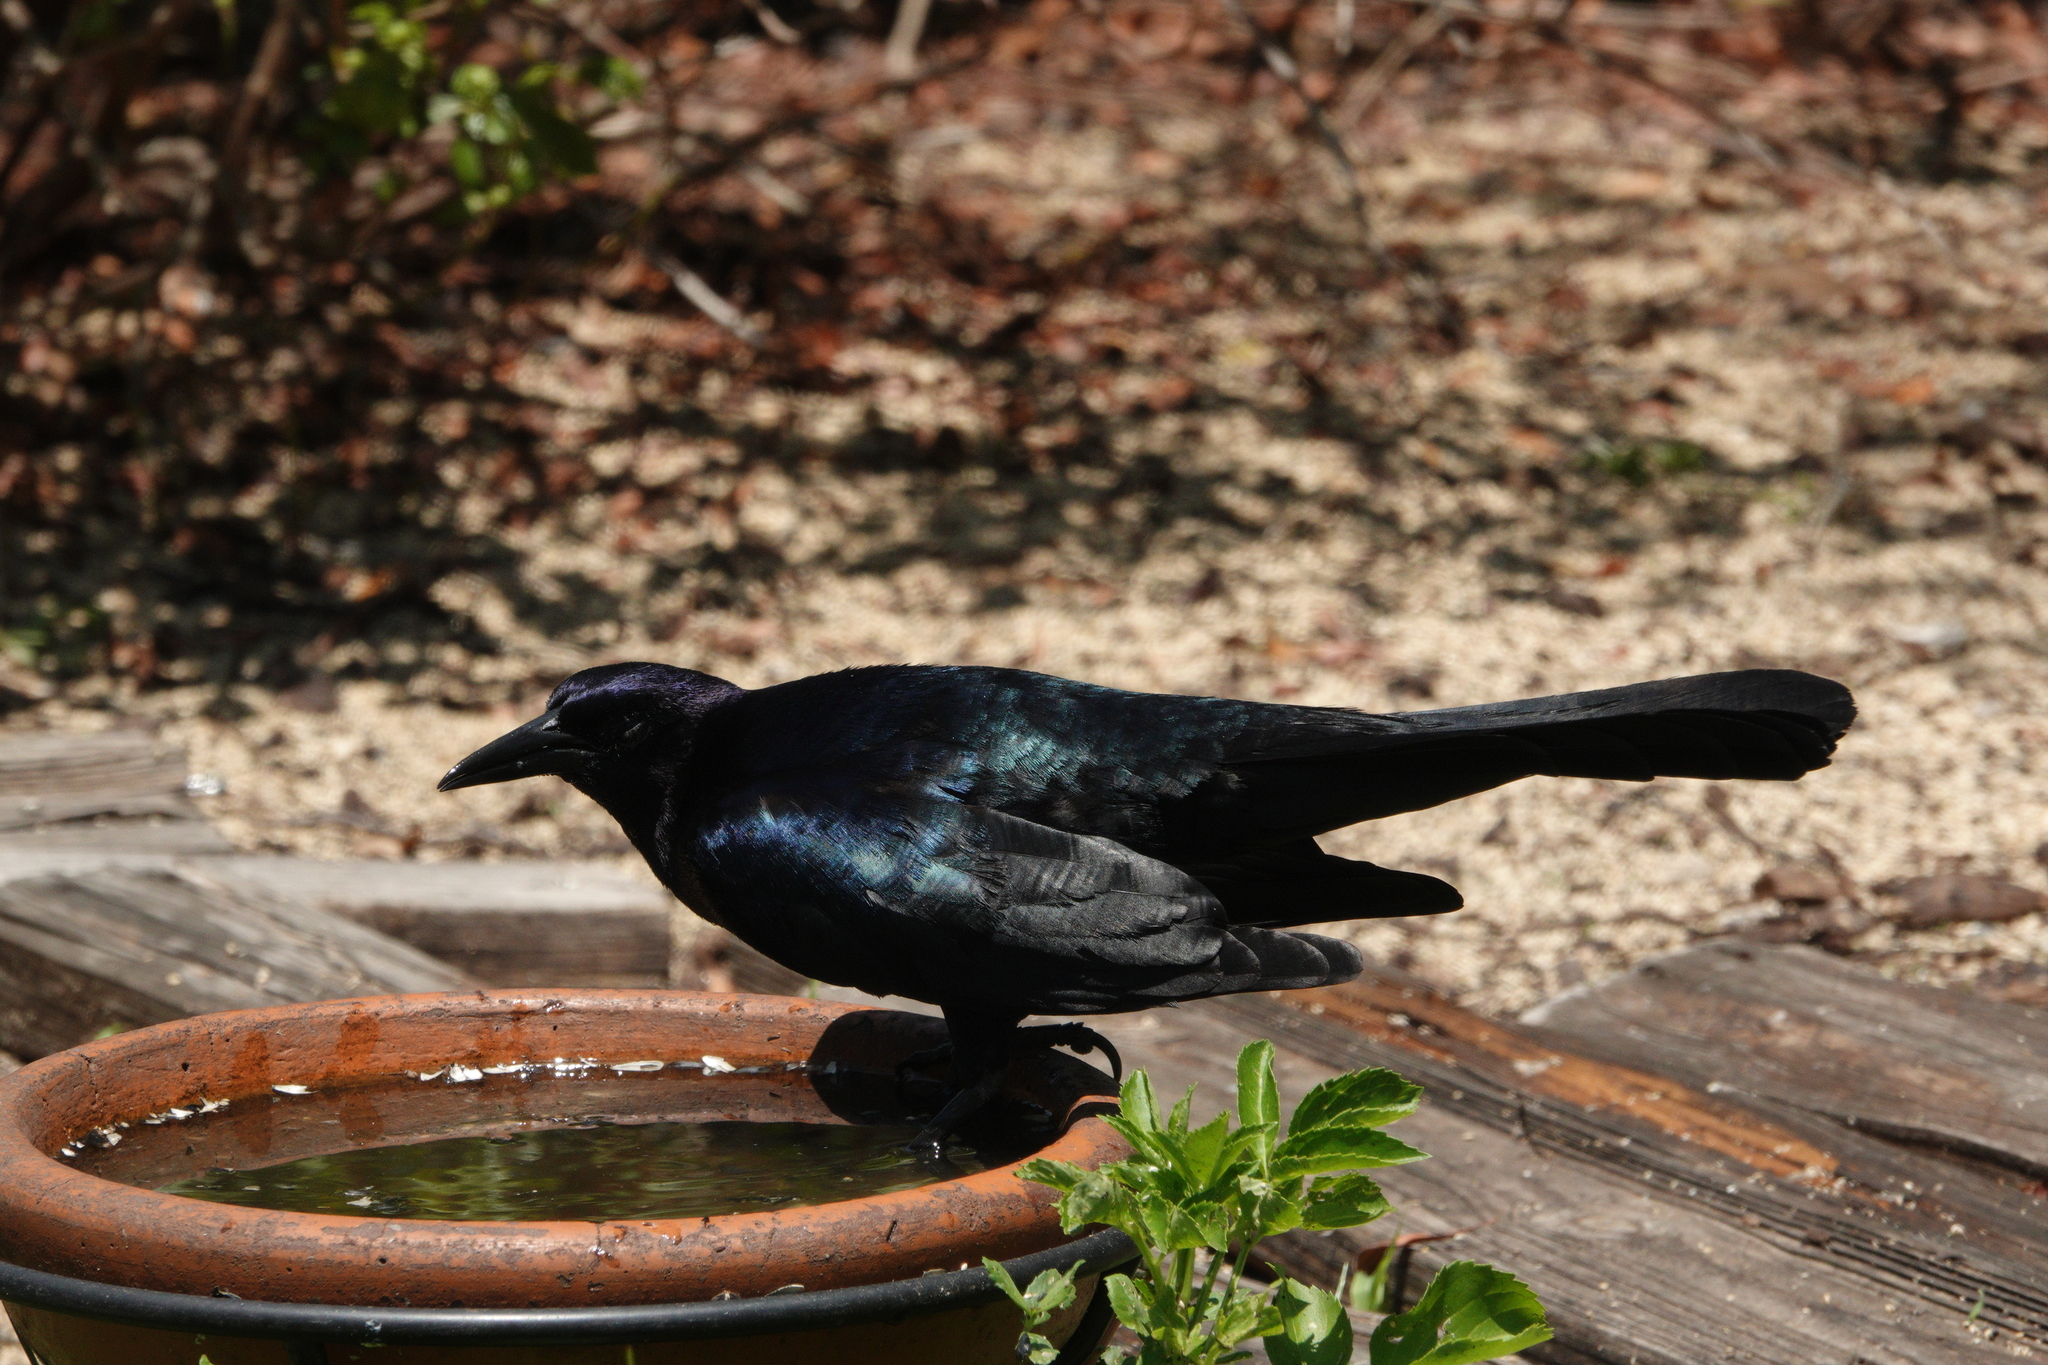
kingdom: Animalia
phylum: Chordata
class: Aves
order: Passeriformes
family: Icteridae
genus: Quiscalus
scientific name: Quiscalus major
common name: Boat-tailed grackle
